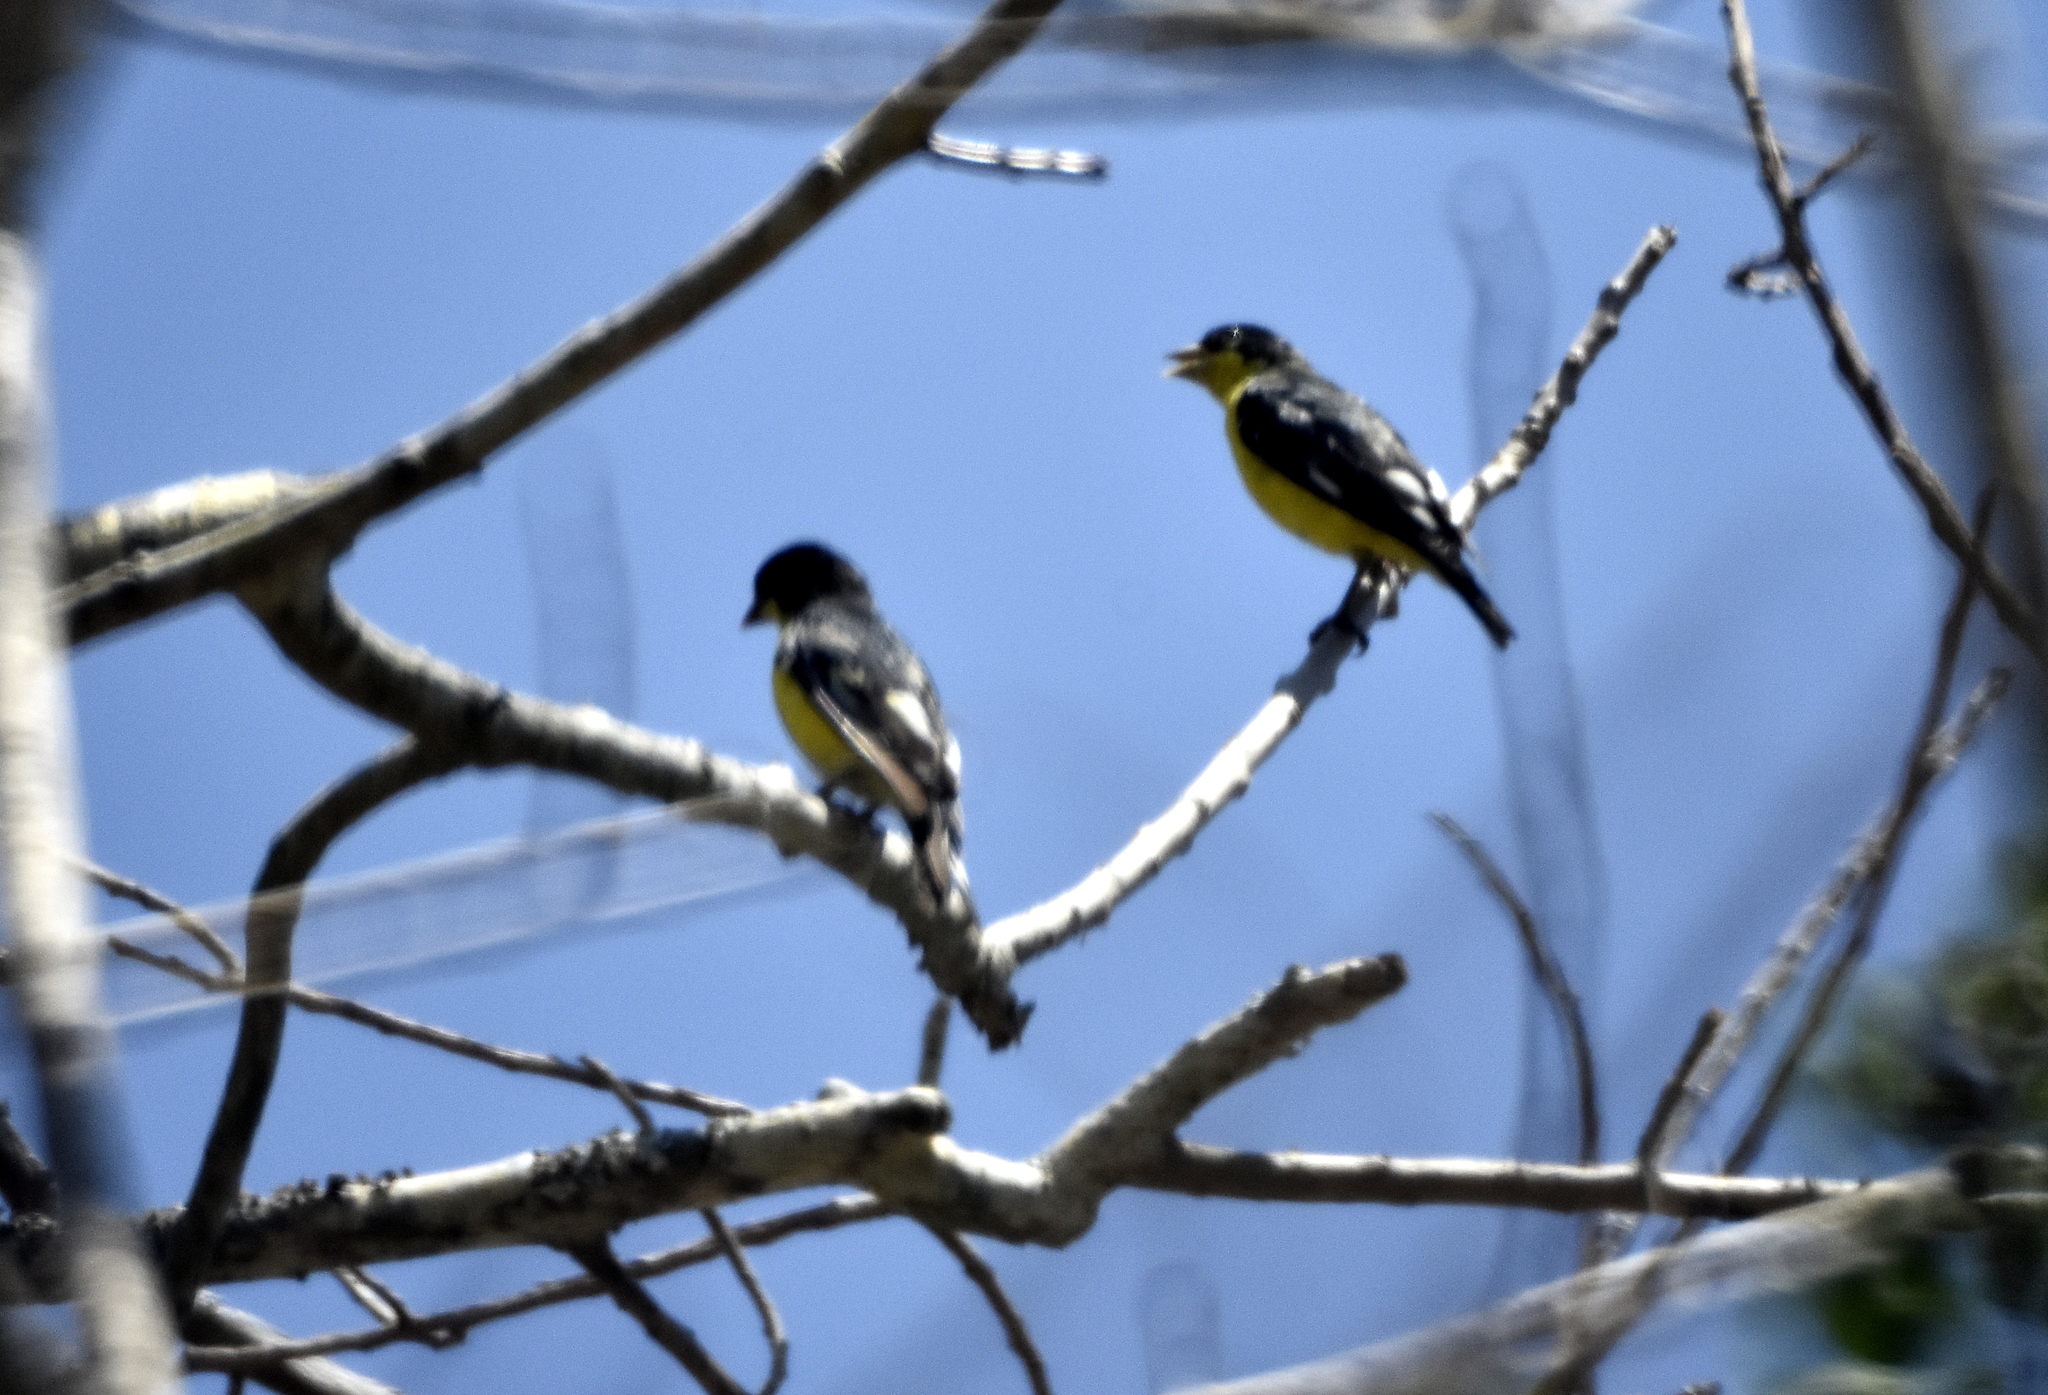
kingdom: Animalia
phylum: Chordata
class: Aves
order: Passeriformes
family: Fringillidae
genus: Spinus
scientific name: Spinus psaltria
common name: Lesser goldfinch
